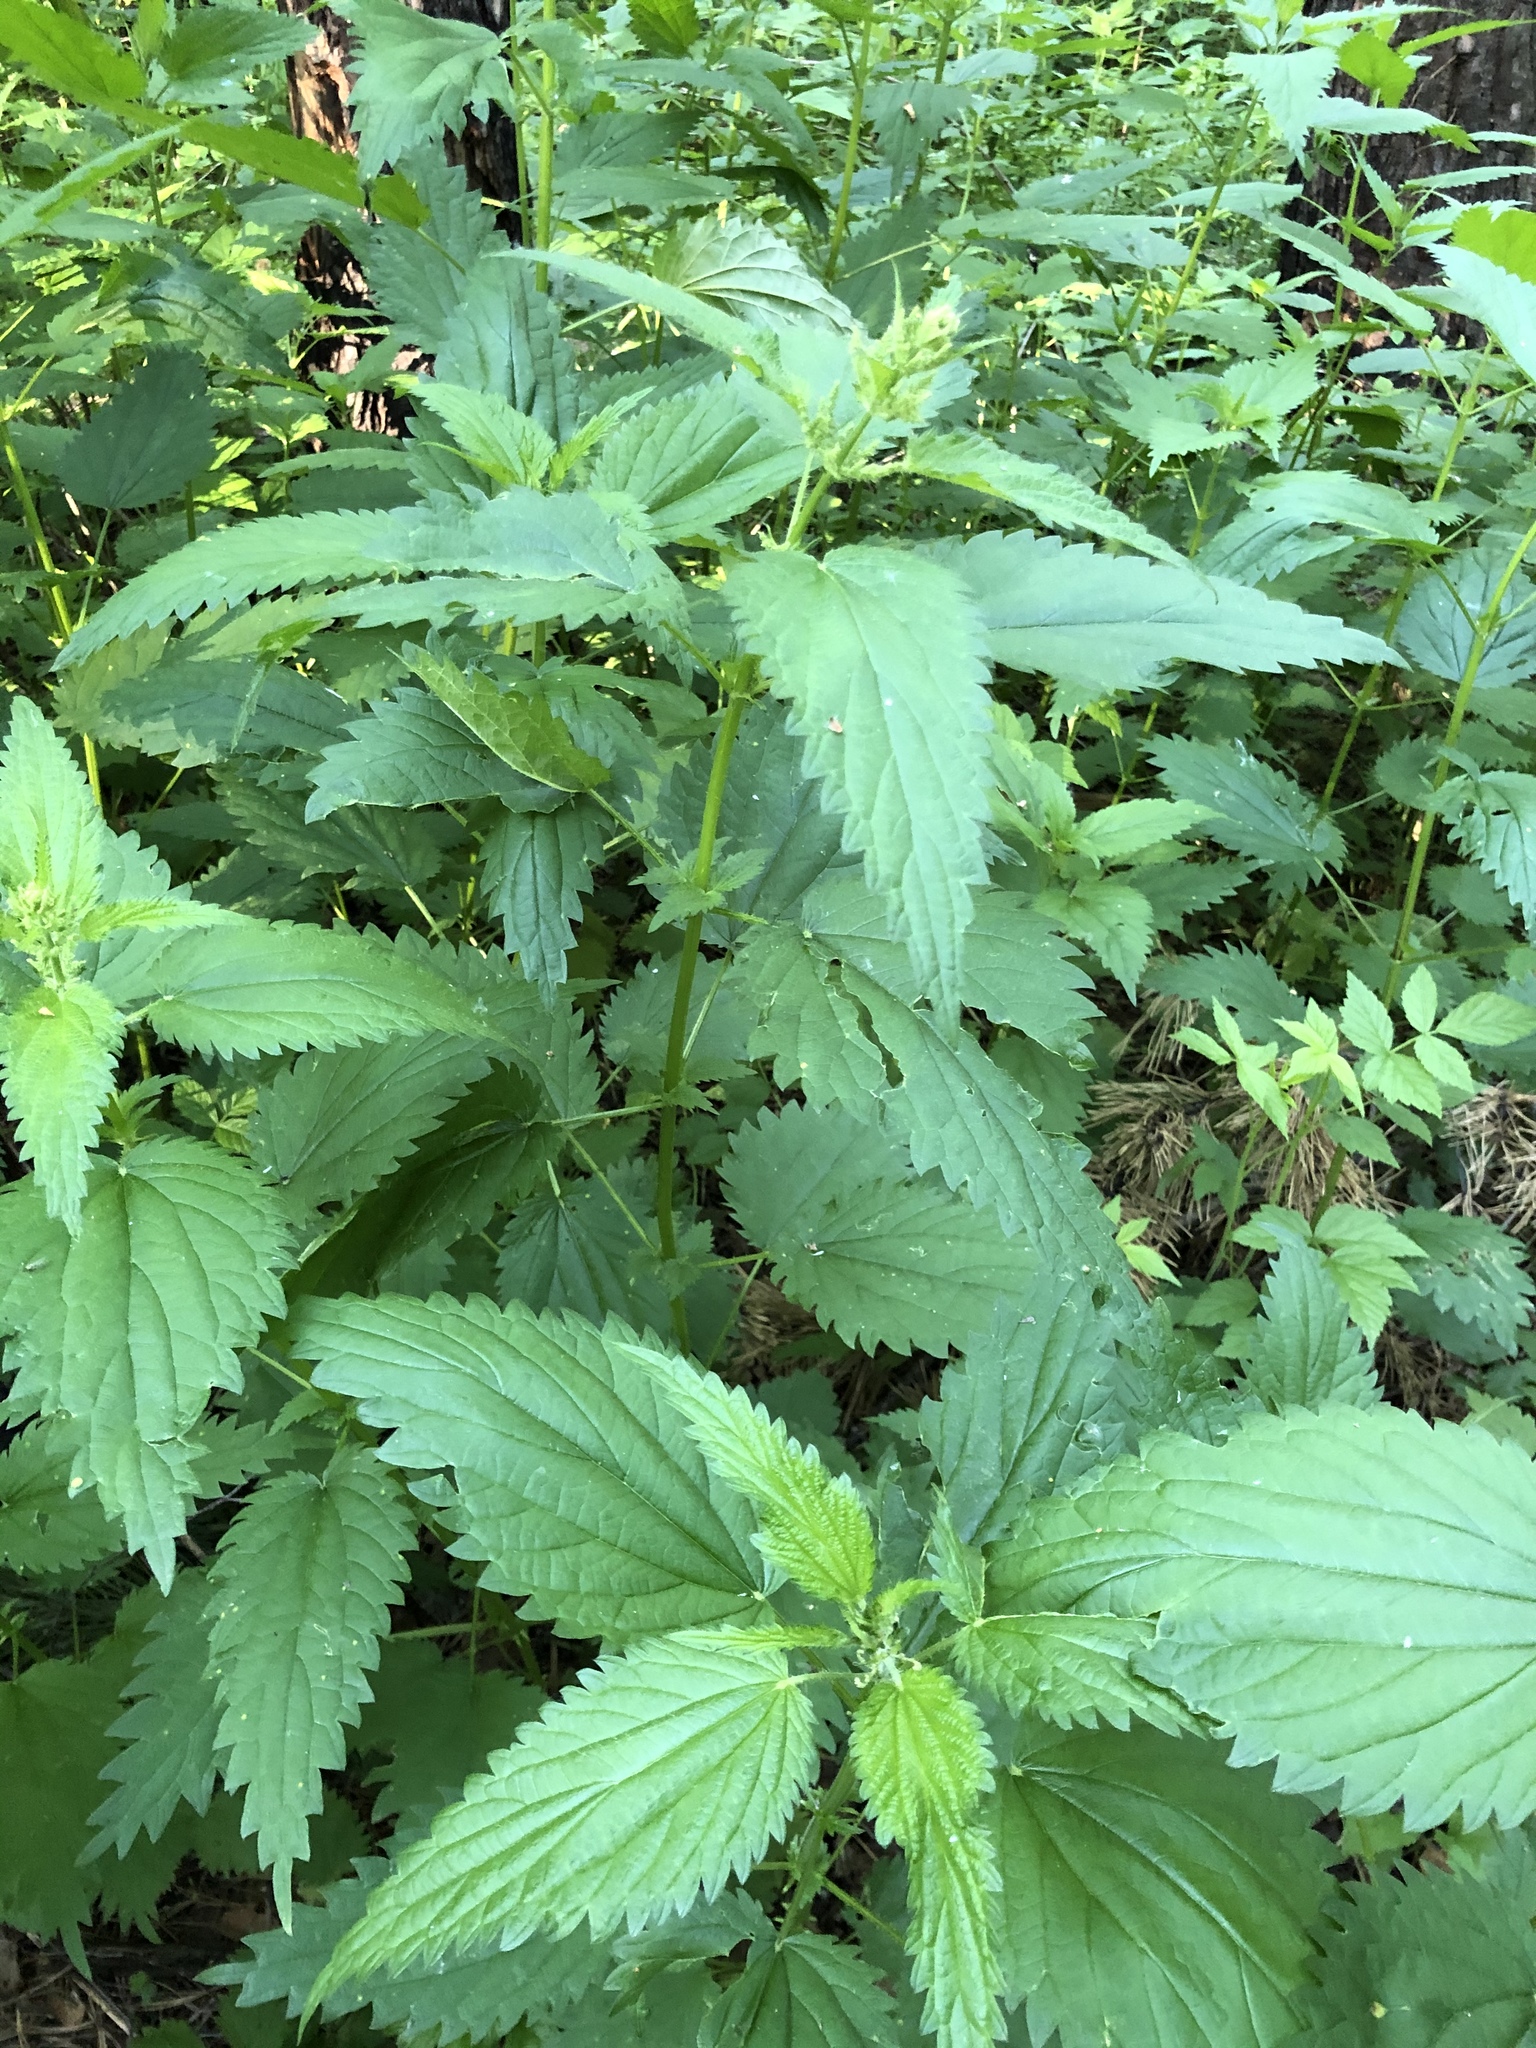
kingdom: Plantae
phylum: Tracheophyta
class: Magnoliopsida
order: Rosales
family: Urticaceae
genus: Urtica
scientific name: Urtica dioica
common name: Common nettle
